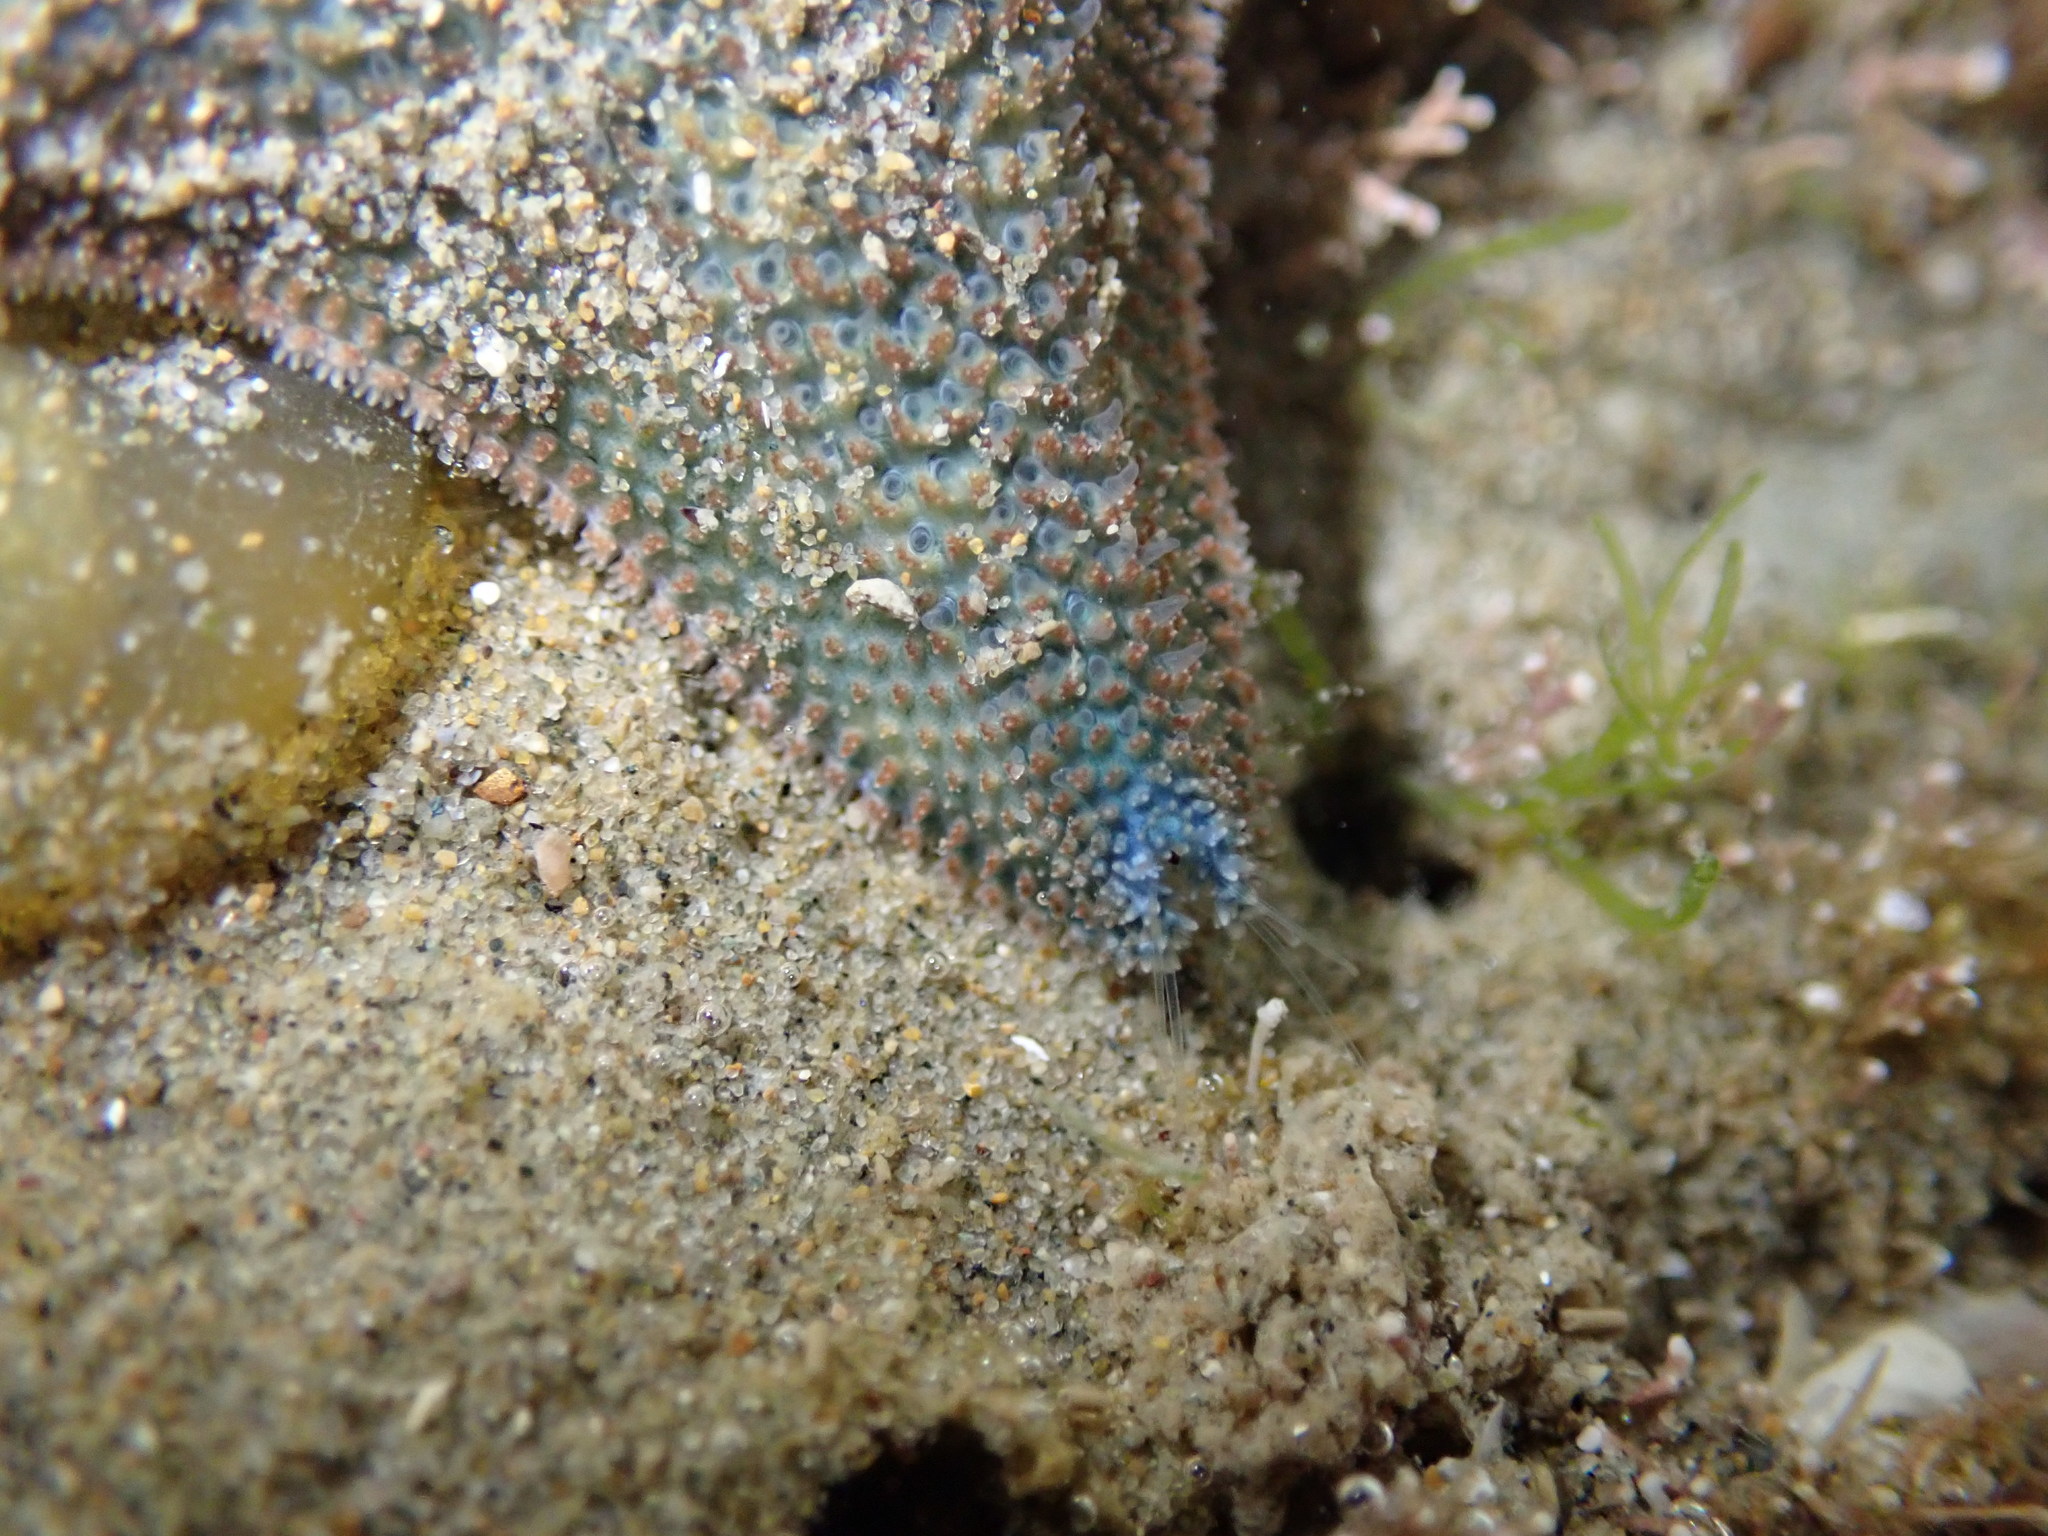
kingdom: Animalia
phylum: Echinodermata
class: Asteroidea
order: Valvatida
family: Asterinidae
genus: Patiriella
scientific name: Patiriella regularis
